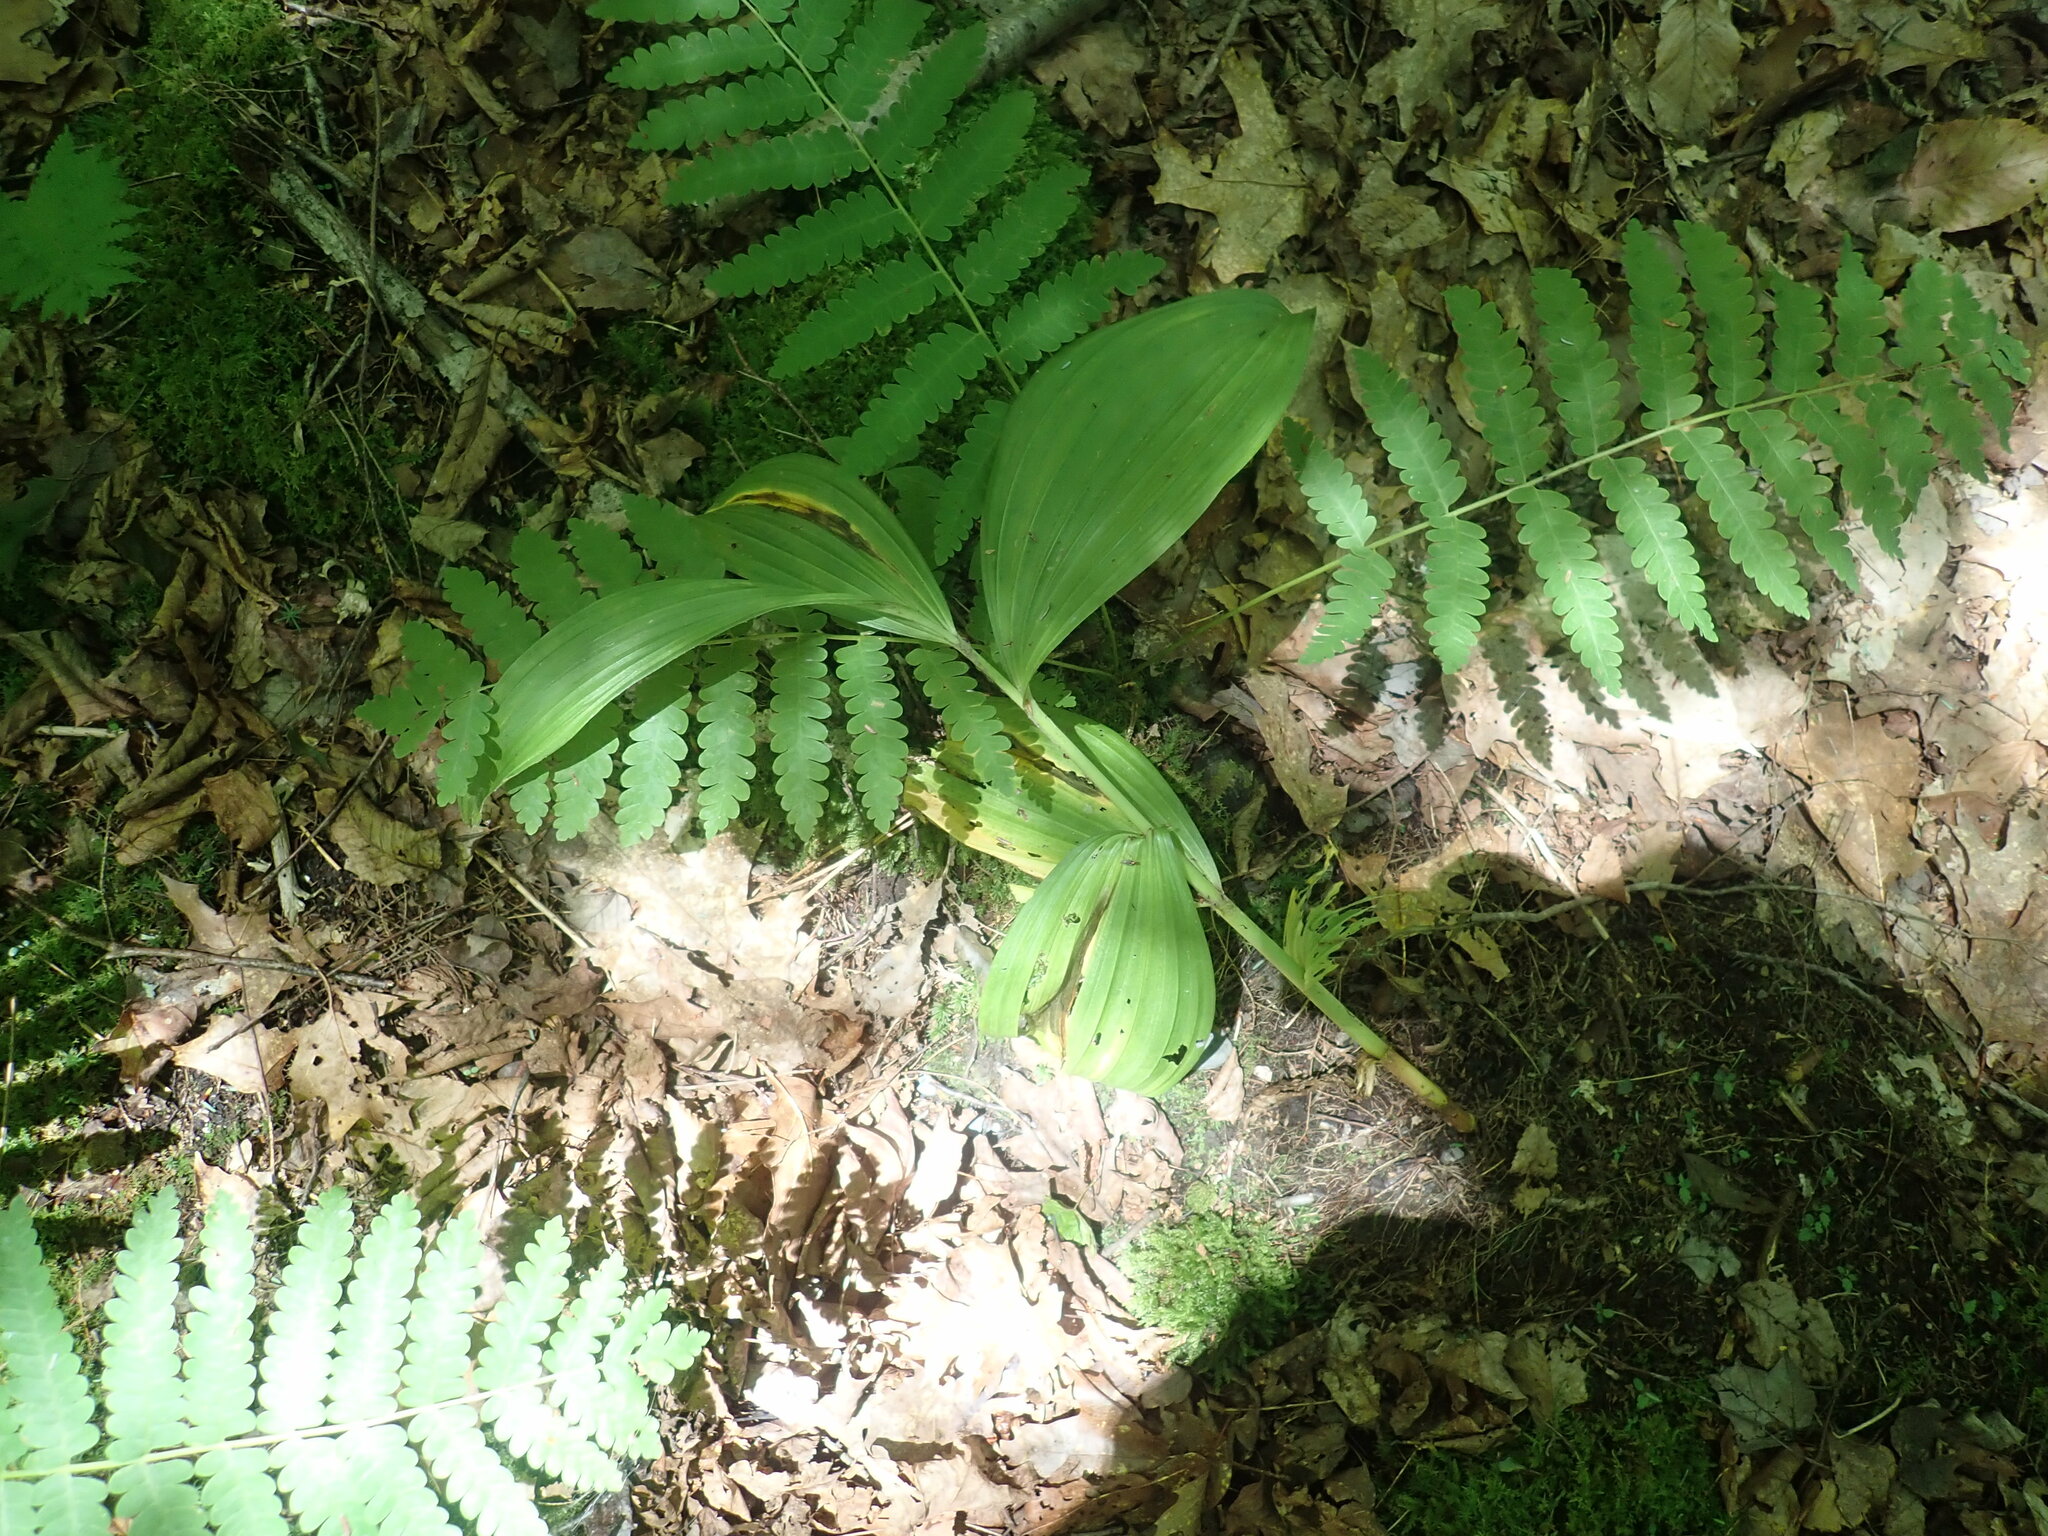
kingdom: Plantae
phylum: Tracheophyta
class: Liliopsida
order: Liliales
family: Melanthiaceae
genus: Veratrum
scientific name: Veratrum viride
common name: American false hellebore
